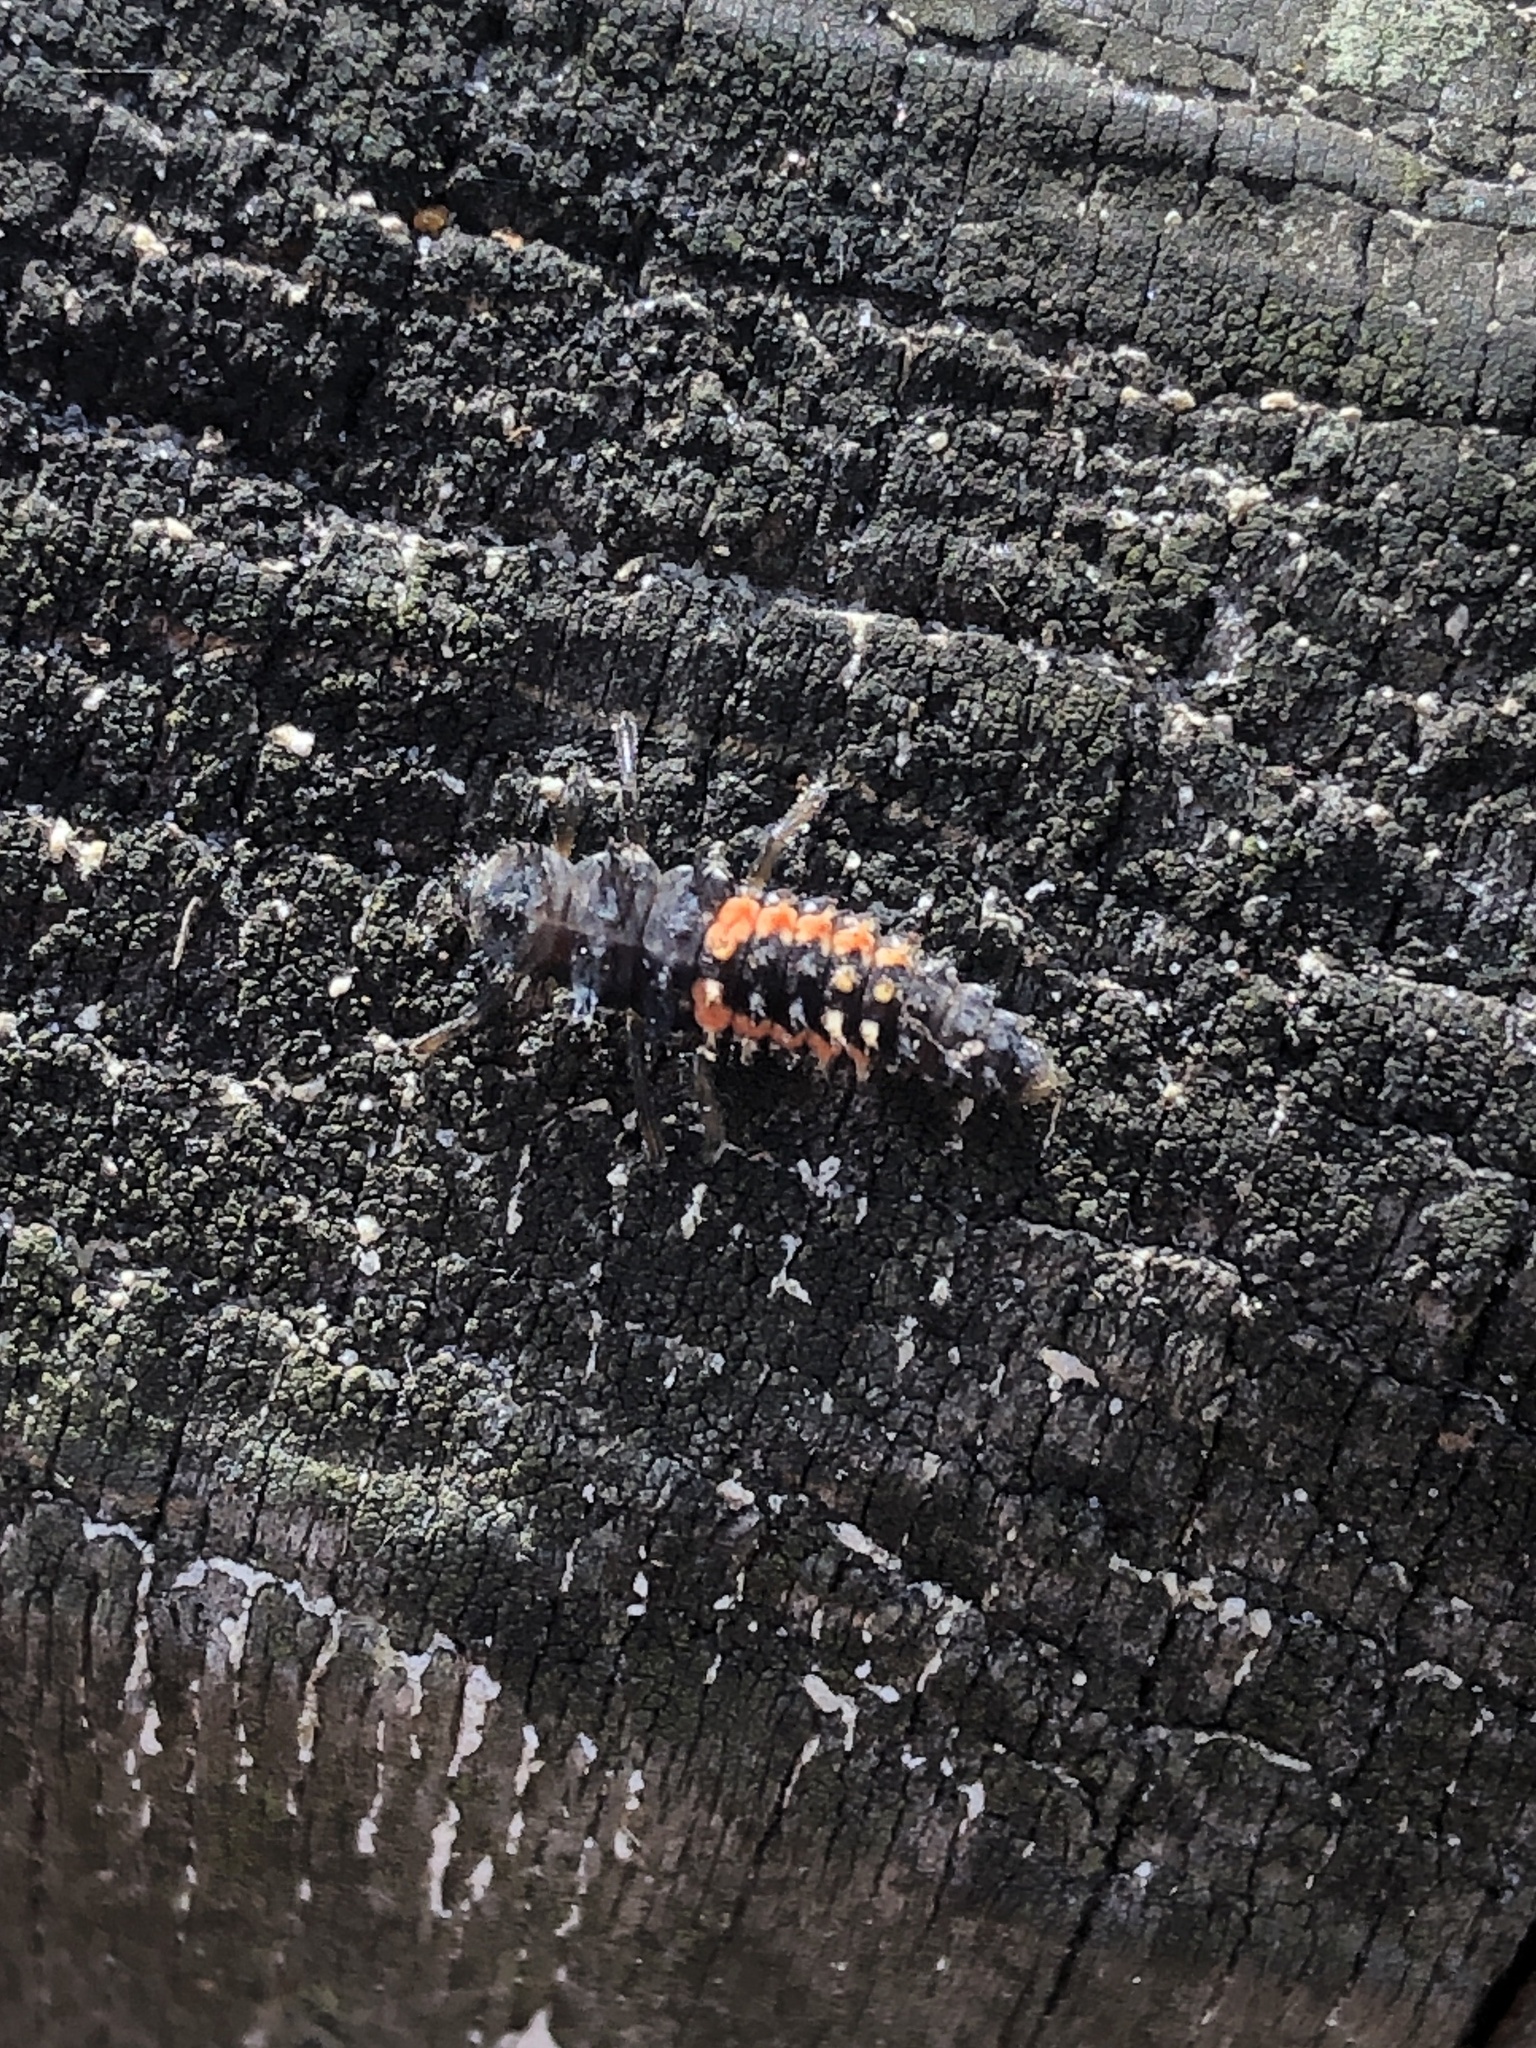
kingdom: Animalia
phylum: Arthropoda
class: Insecta
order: Coleoptera
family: Coccinellidae
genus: Harmonia
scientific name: Harmonia axyridis
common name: Harlequin ladybird
